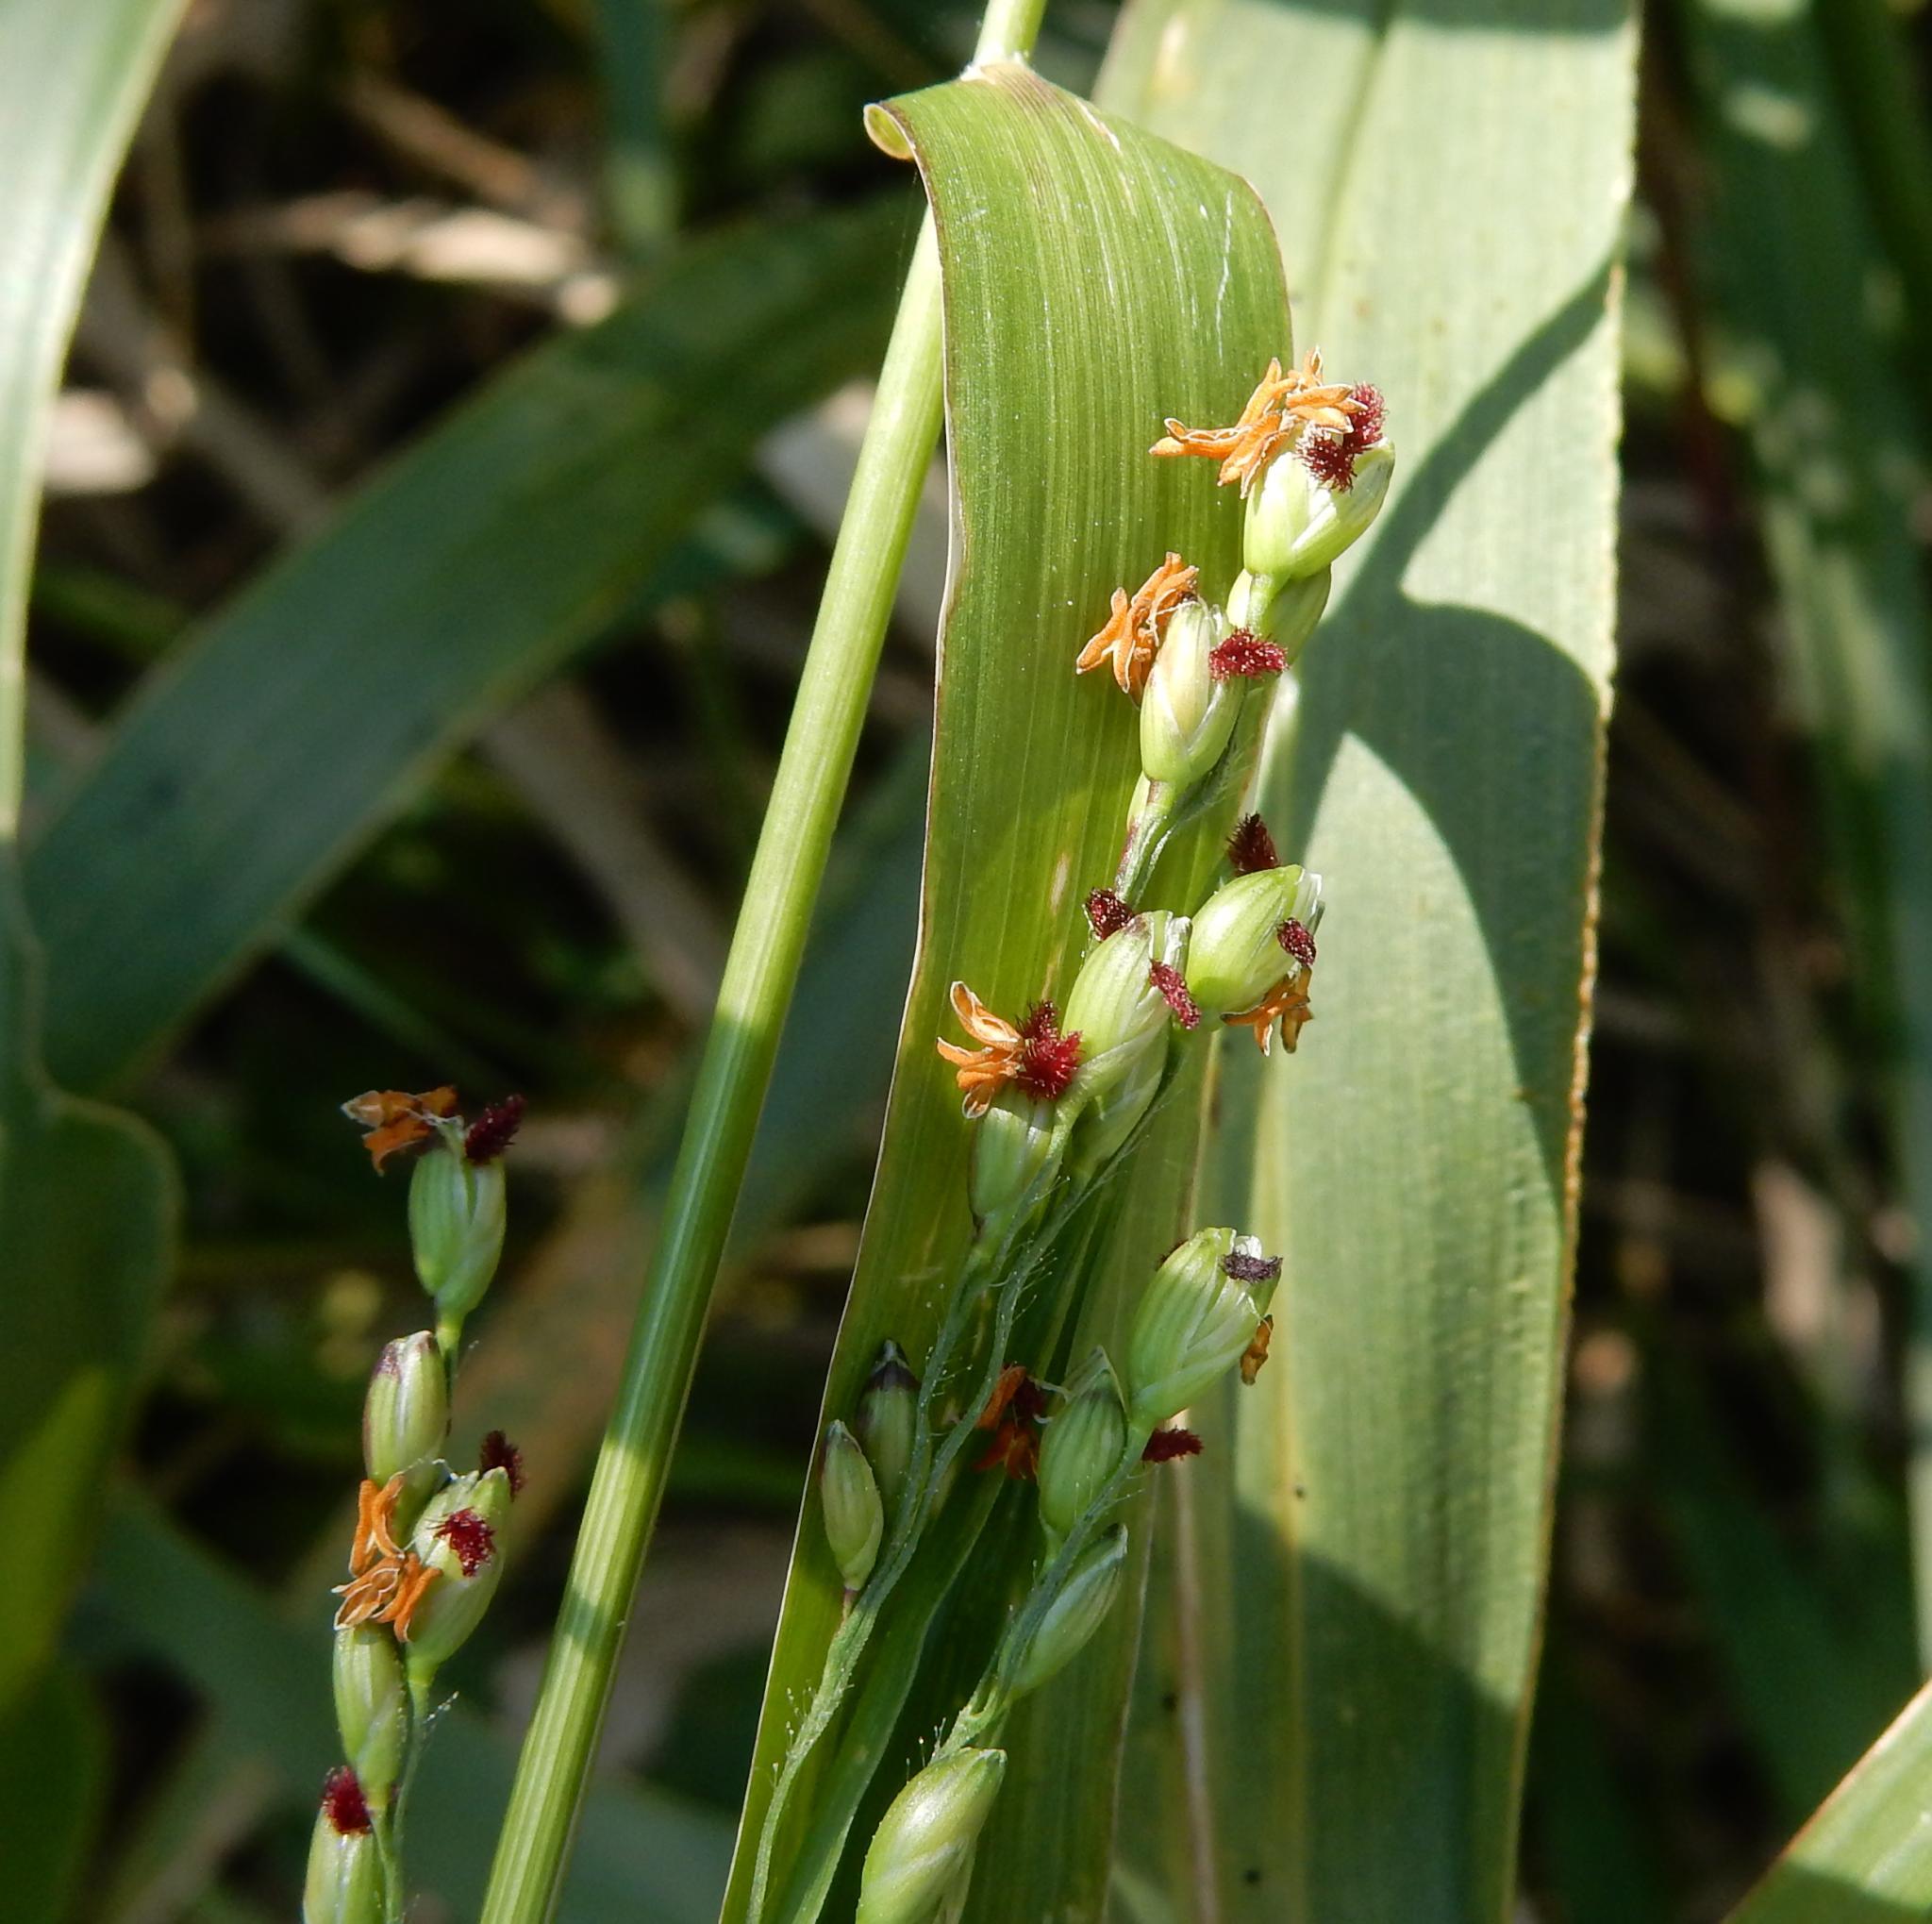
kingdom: Plantae
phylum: Tracheophyta
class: Liliopsida
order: Poales
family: Poaceae
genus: Panicum
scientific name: Panicum deustum
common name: Reed panicum
